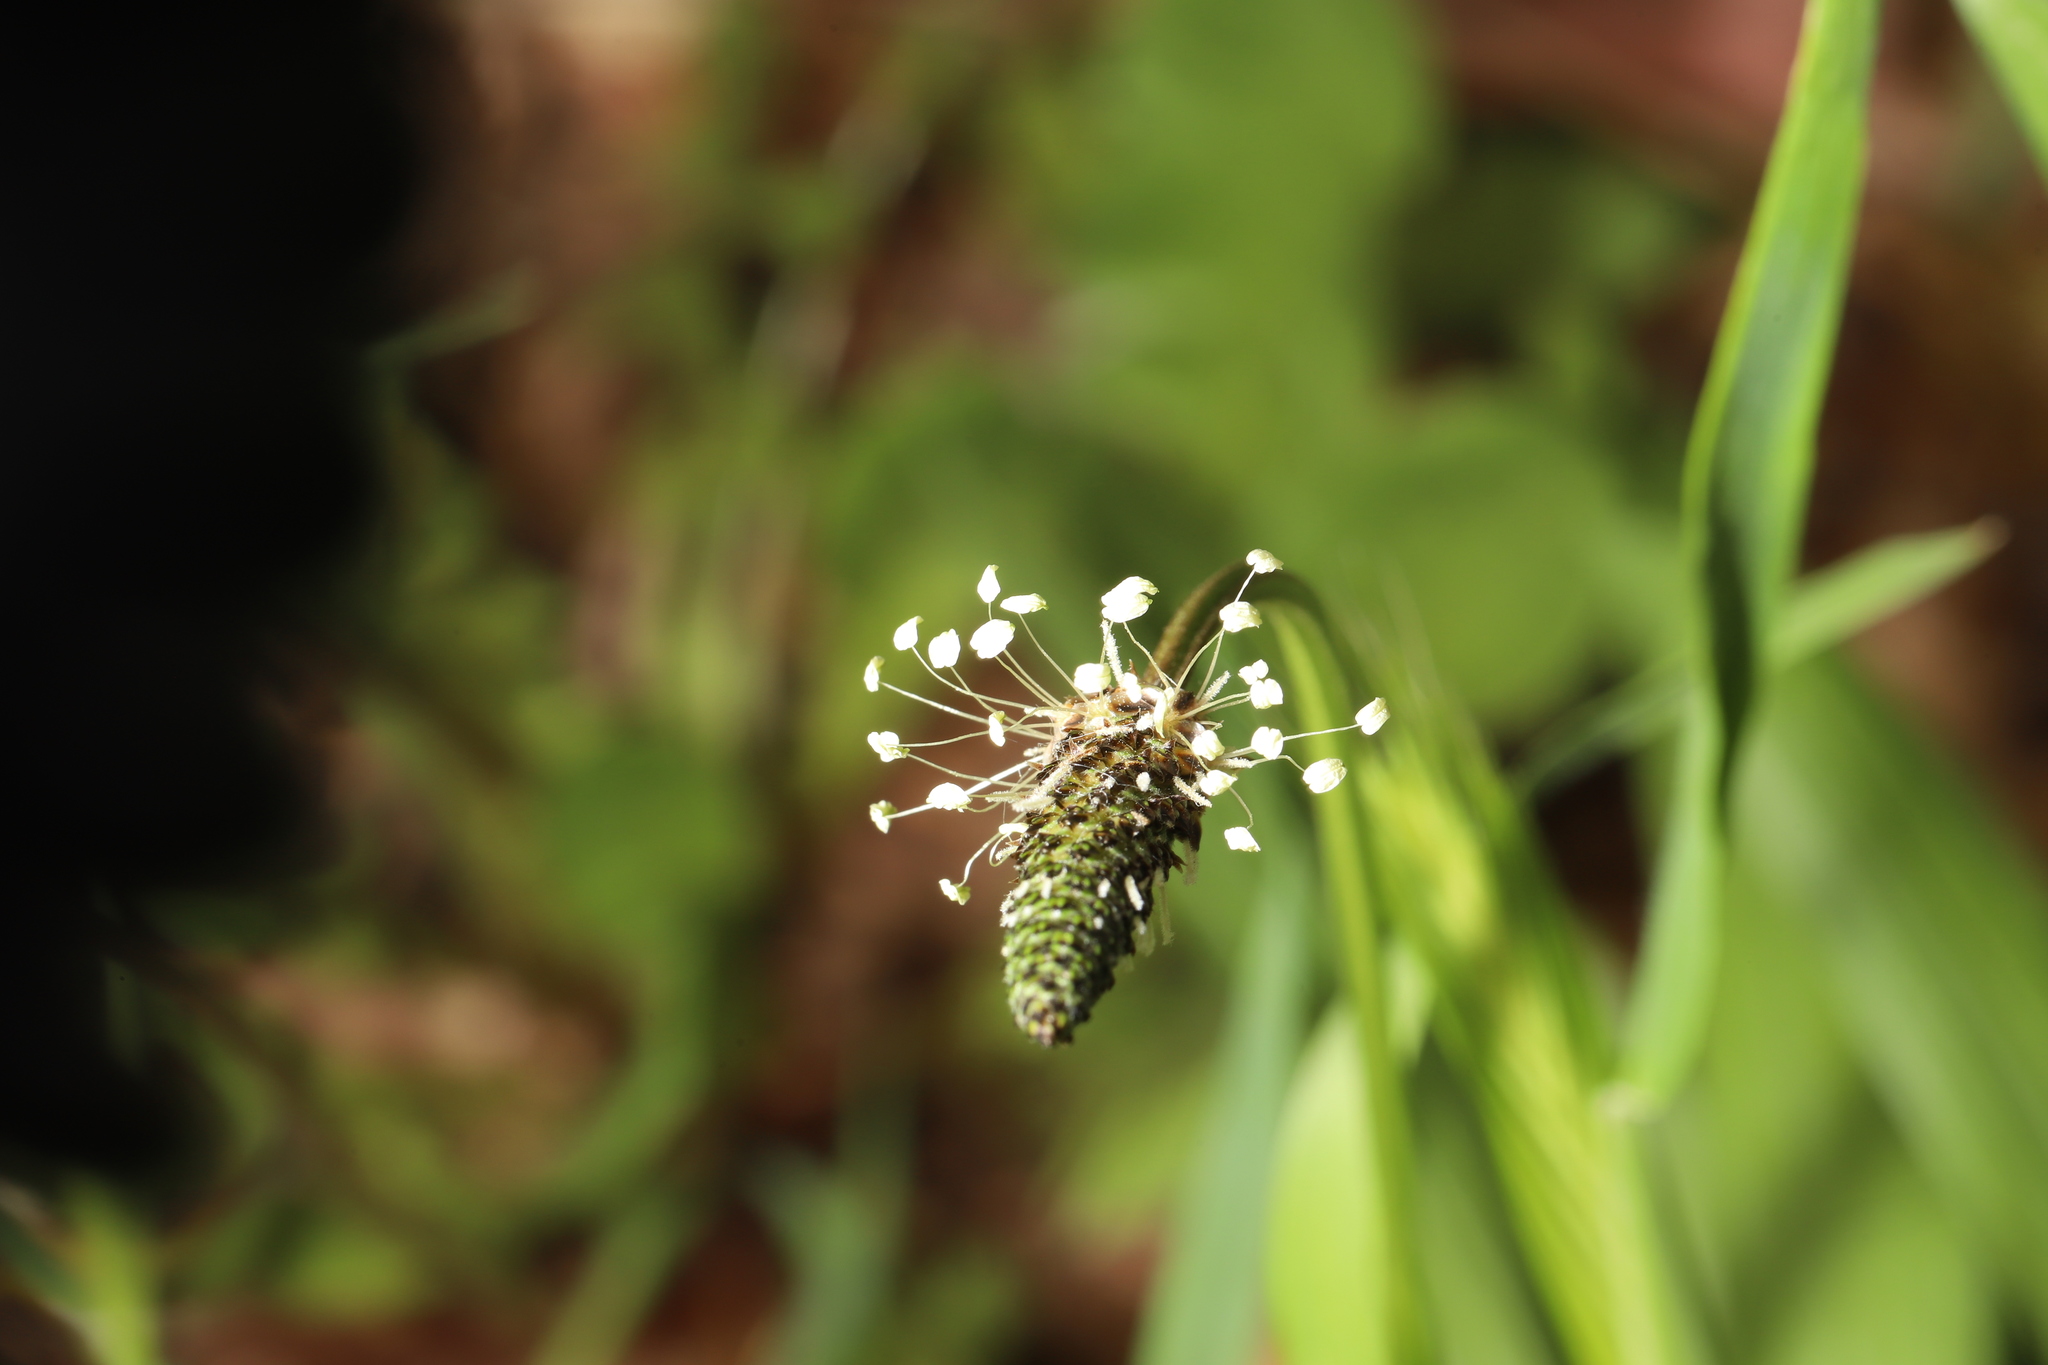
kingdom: Plantae
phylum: Tracheophyta
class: Magnoliopsida
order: Lamiales
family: Plantaginaceae
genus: Plantago
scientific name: Plantago lanceolata
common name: Ribwort plantain
